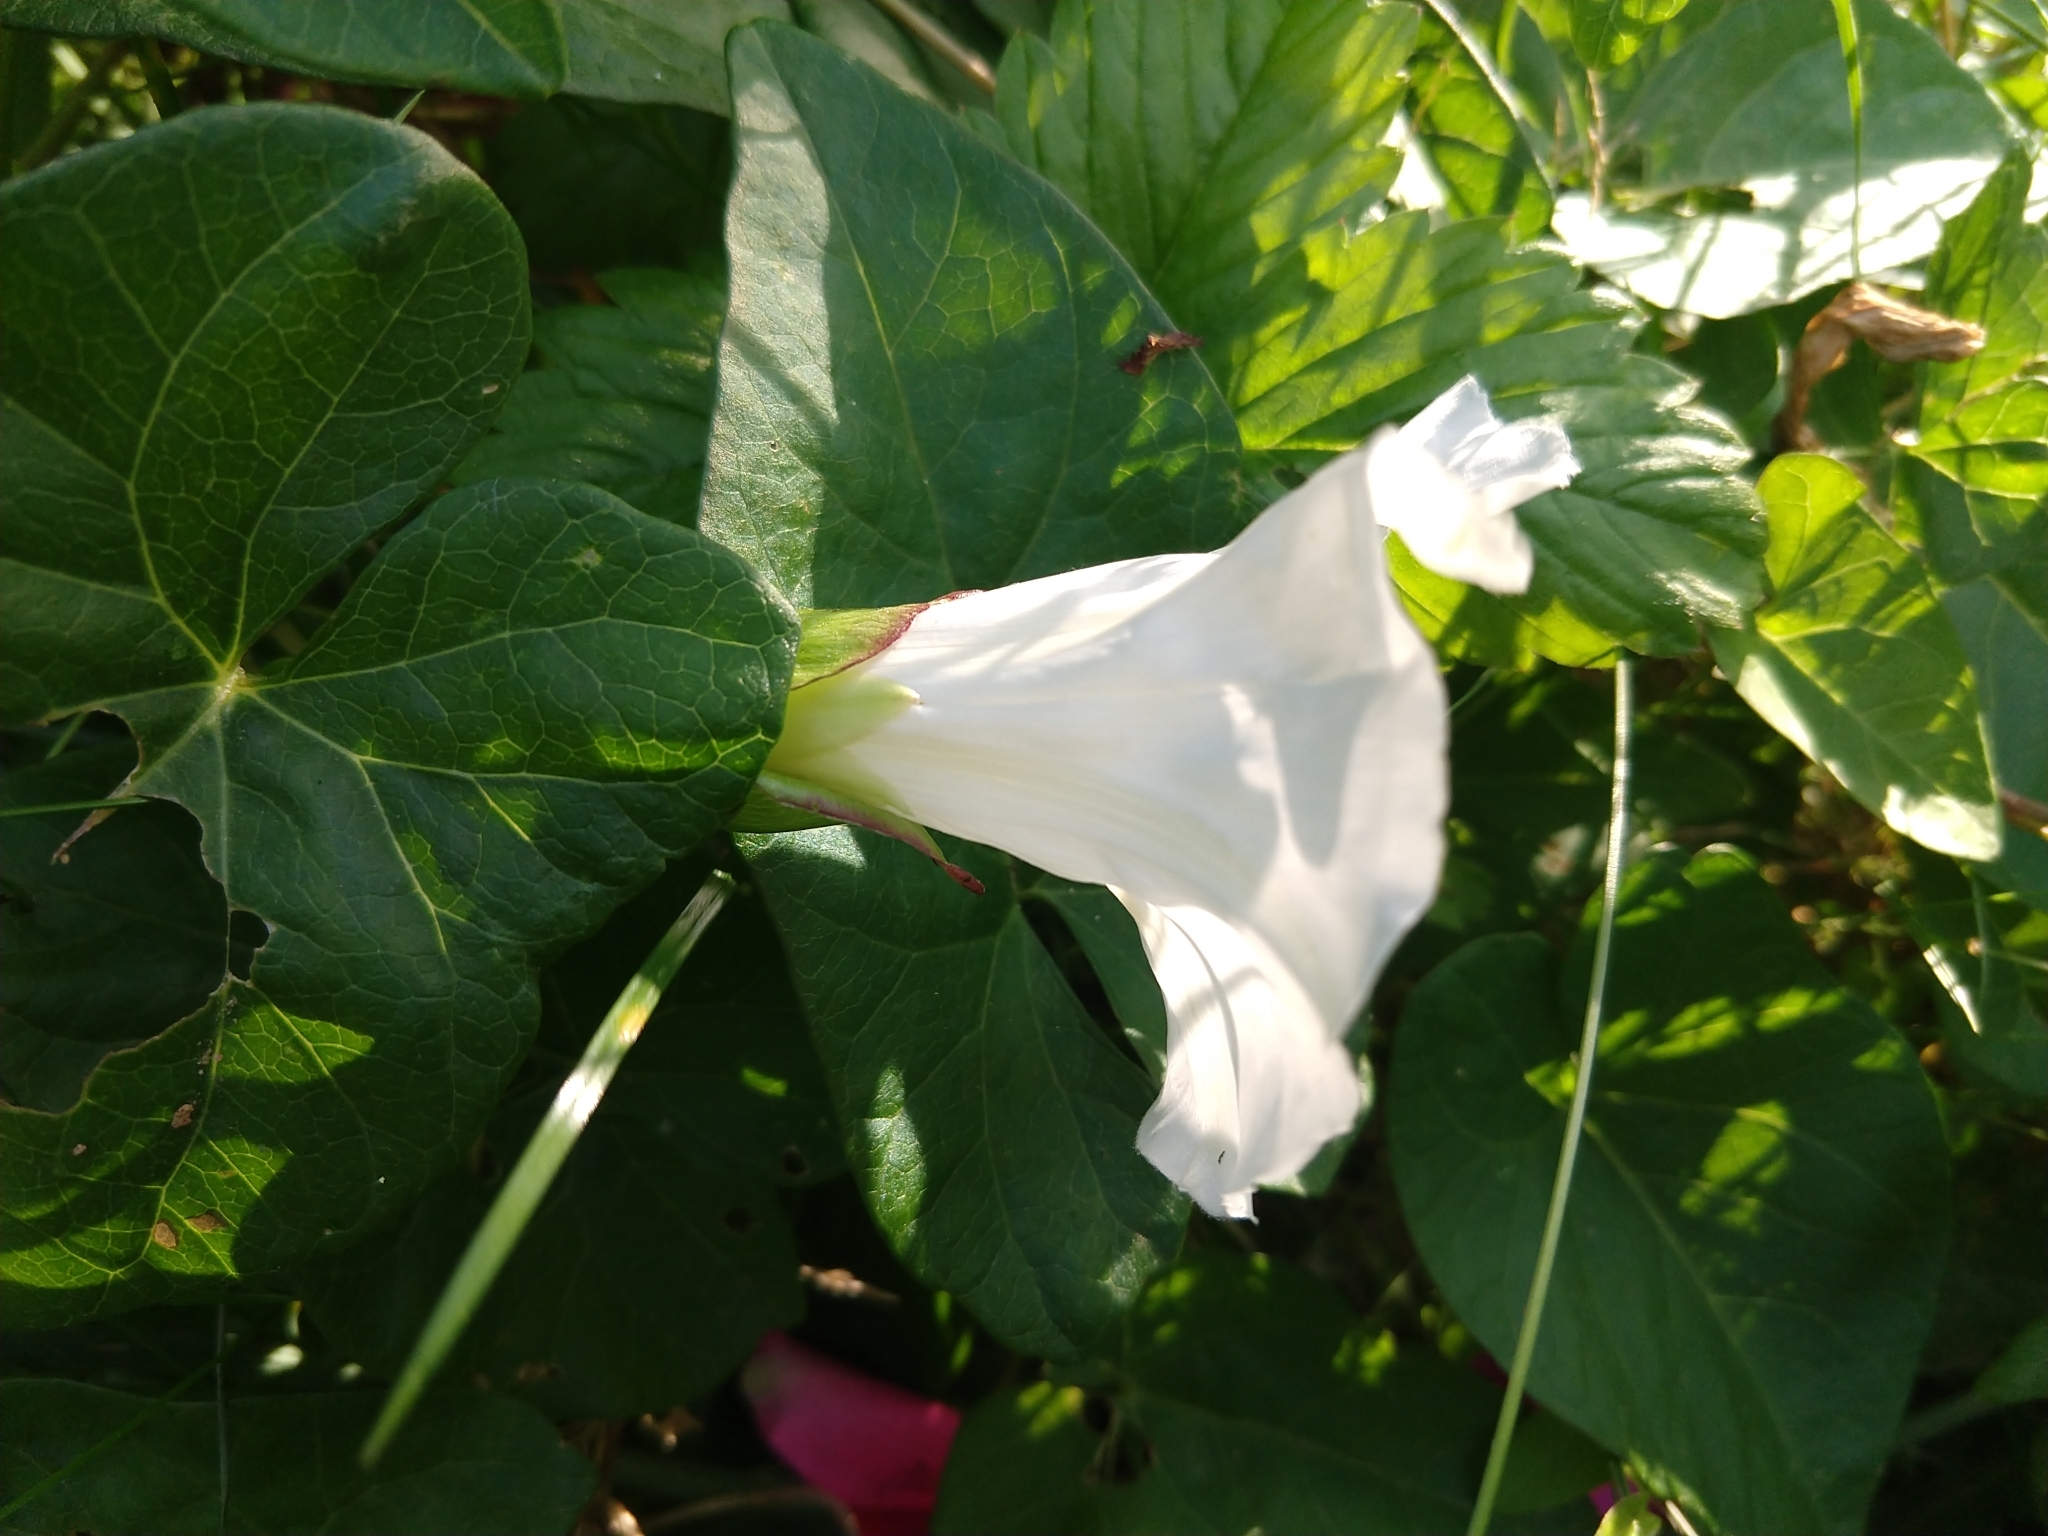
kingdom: Plantae
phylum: Tracheophyta
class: Magnoliopsida
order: Solanales
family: Convolvulaceae
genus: Calystegia
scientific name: Calystegia sepium
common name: Hedge bindweed
